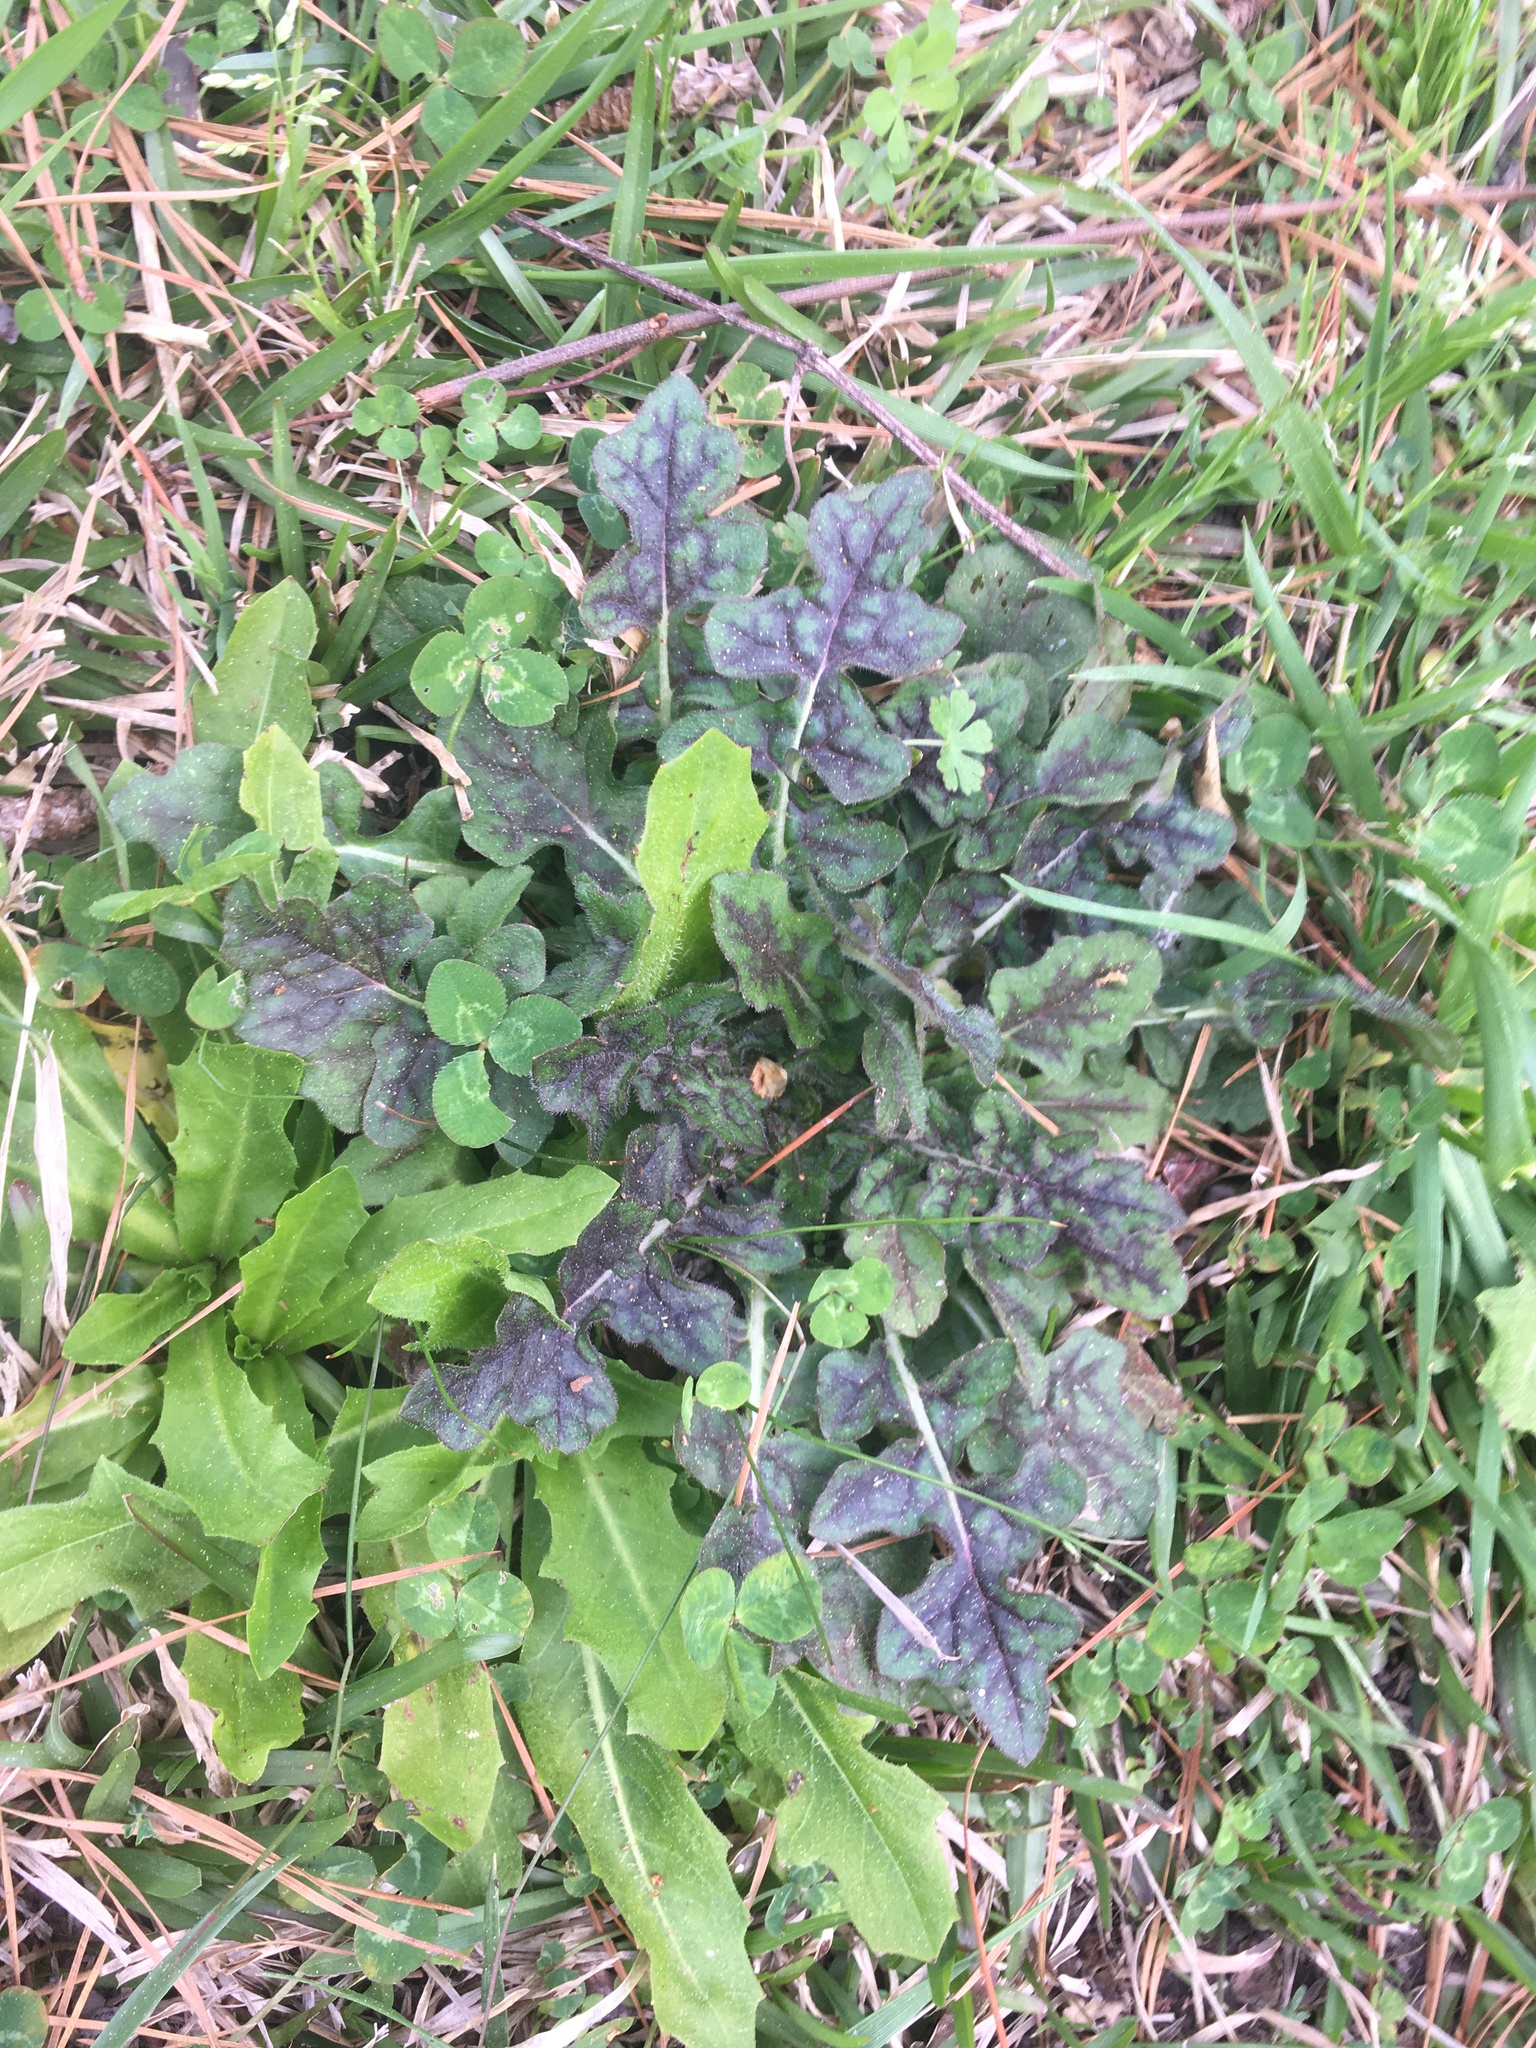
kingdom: Plantae
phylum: Tracheophyta
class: Magnoliopsida
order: Lamiales
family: Lamiaceae
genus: Salvia
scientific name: Salvia lyrata
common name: Cancerweed
